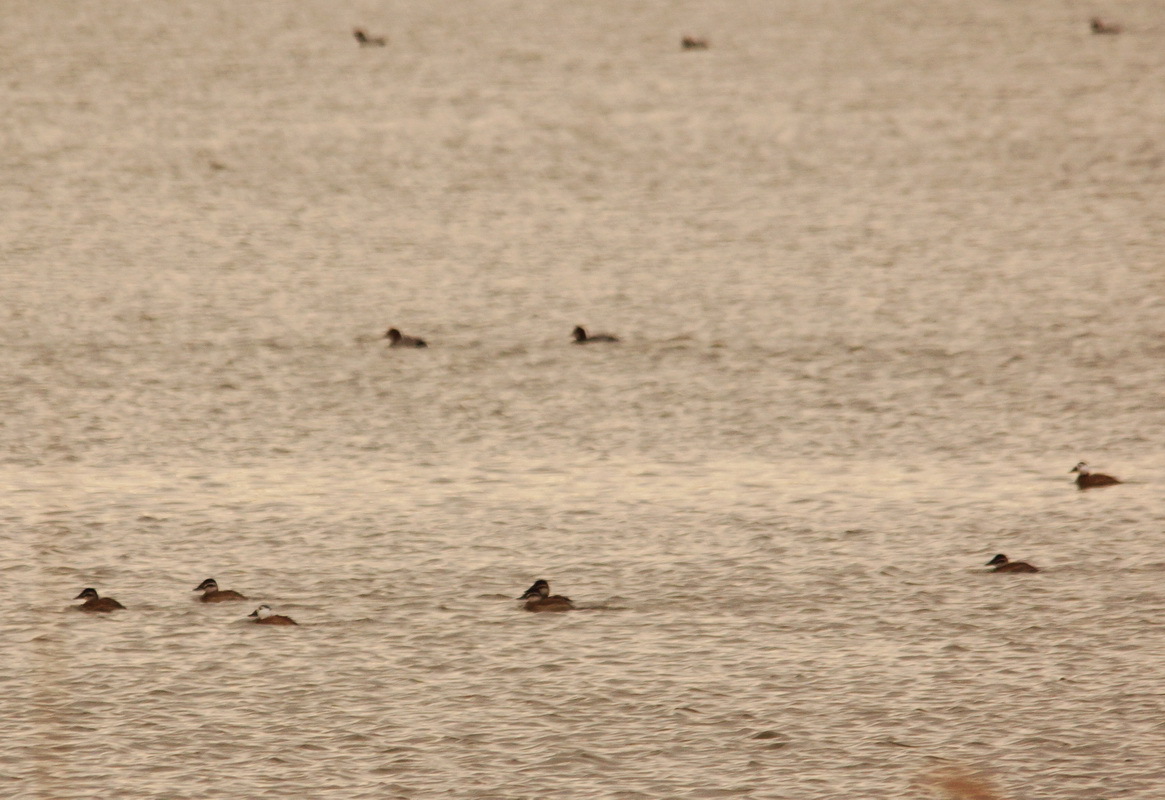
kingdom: Animalia
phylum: Chordata
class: Aves
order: Anseriformes
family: Anatidae
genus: Oxyura
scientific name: Oxyura leucocephala
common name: White-headed duck
